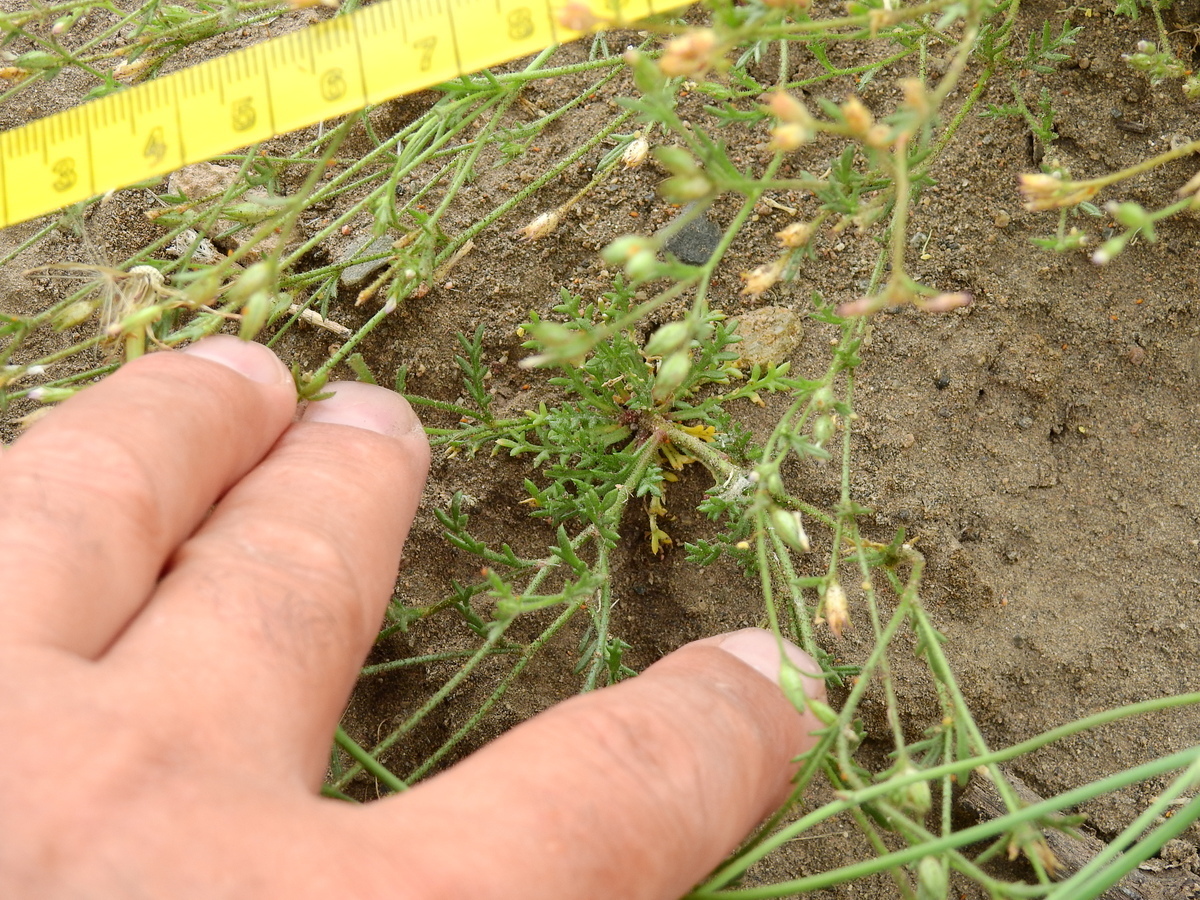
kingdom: Plantae
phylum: Tracheophyta
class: Magnoliopsida
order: Ericales
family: Polemoniaceae
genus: Gilia
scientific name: Gilia crassifolia
